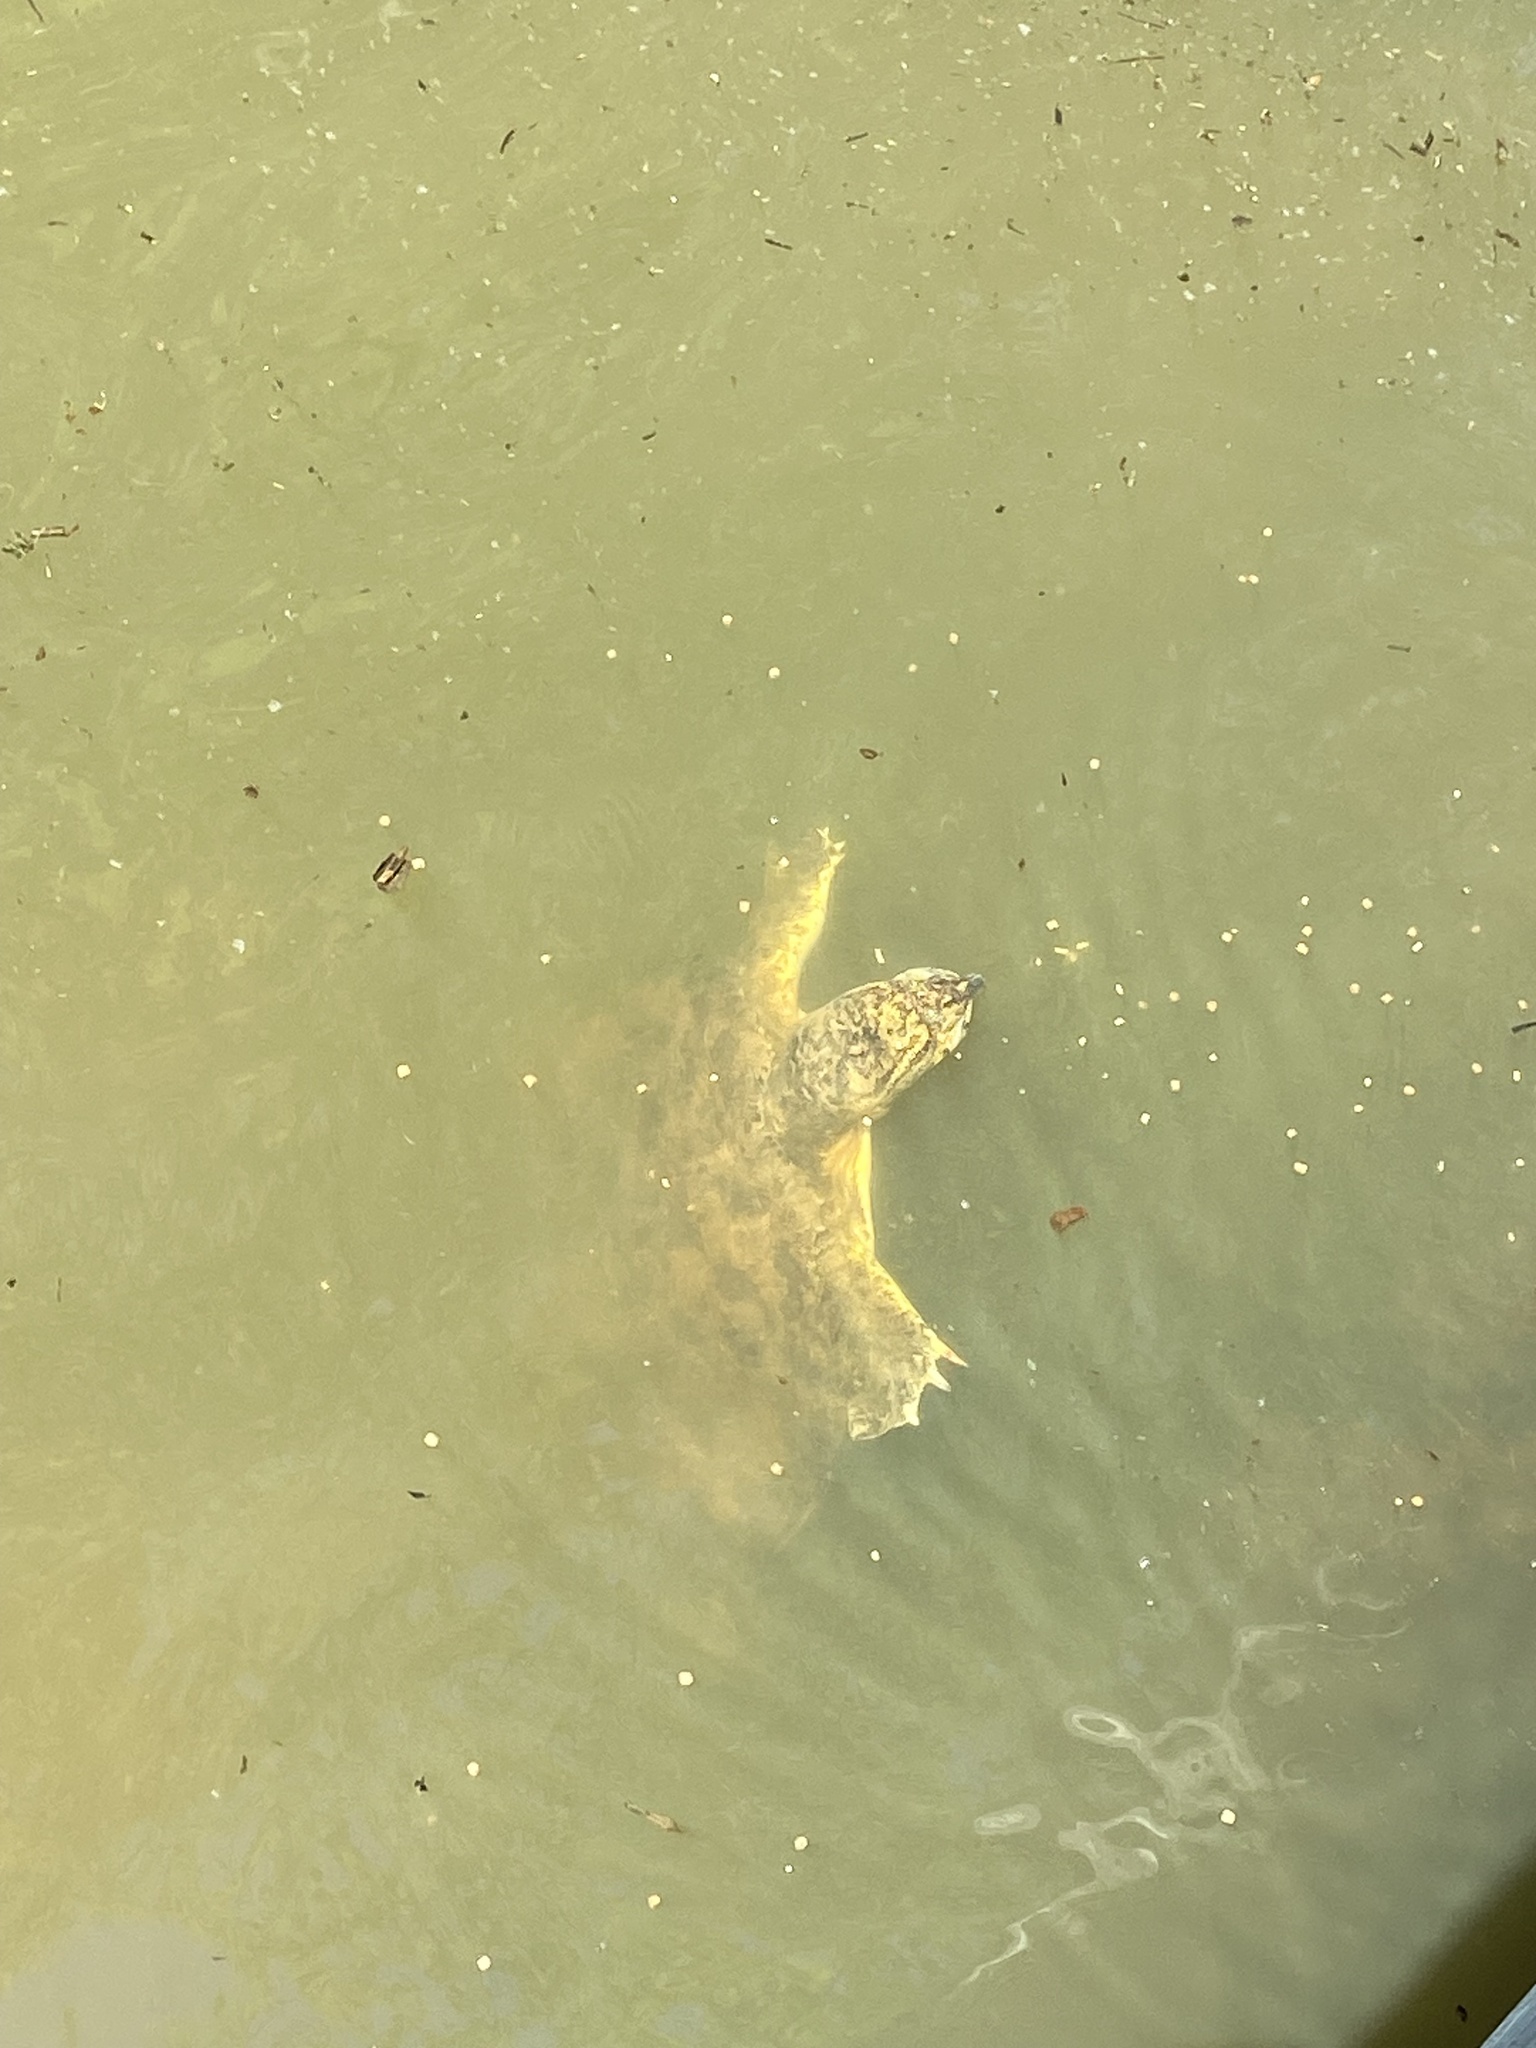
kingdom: Animalia
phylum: Chordata
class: Testudines
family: Trionychidae
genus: Apalone
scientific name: Apalone spinifera
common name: Spiny softshell turtle
